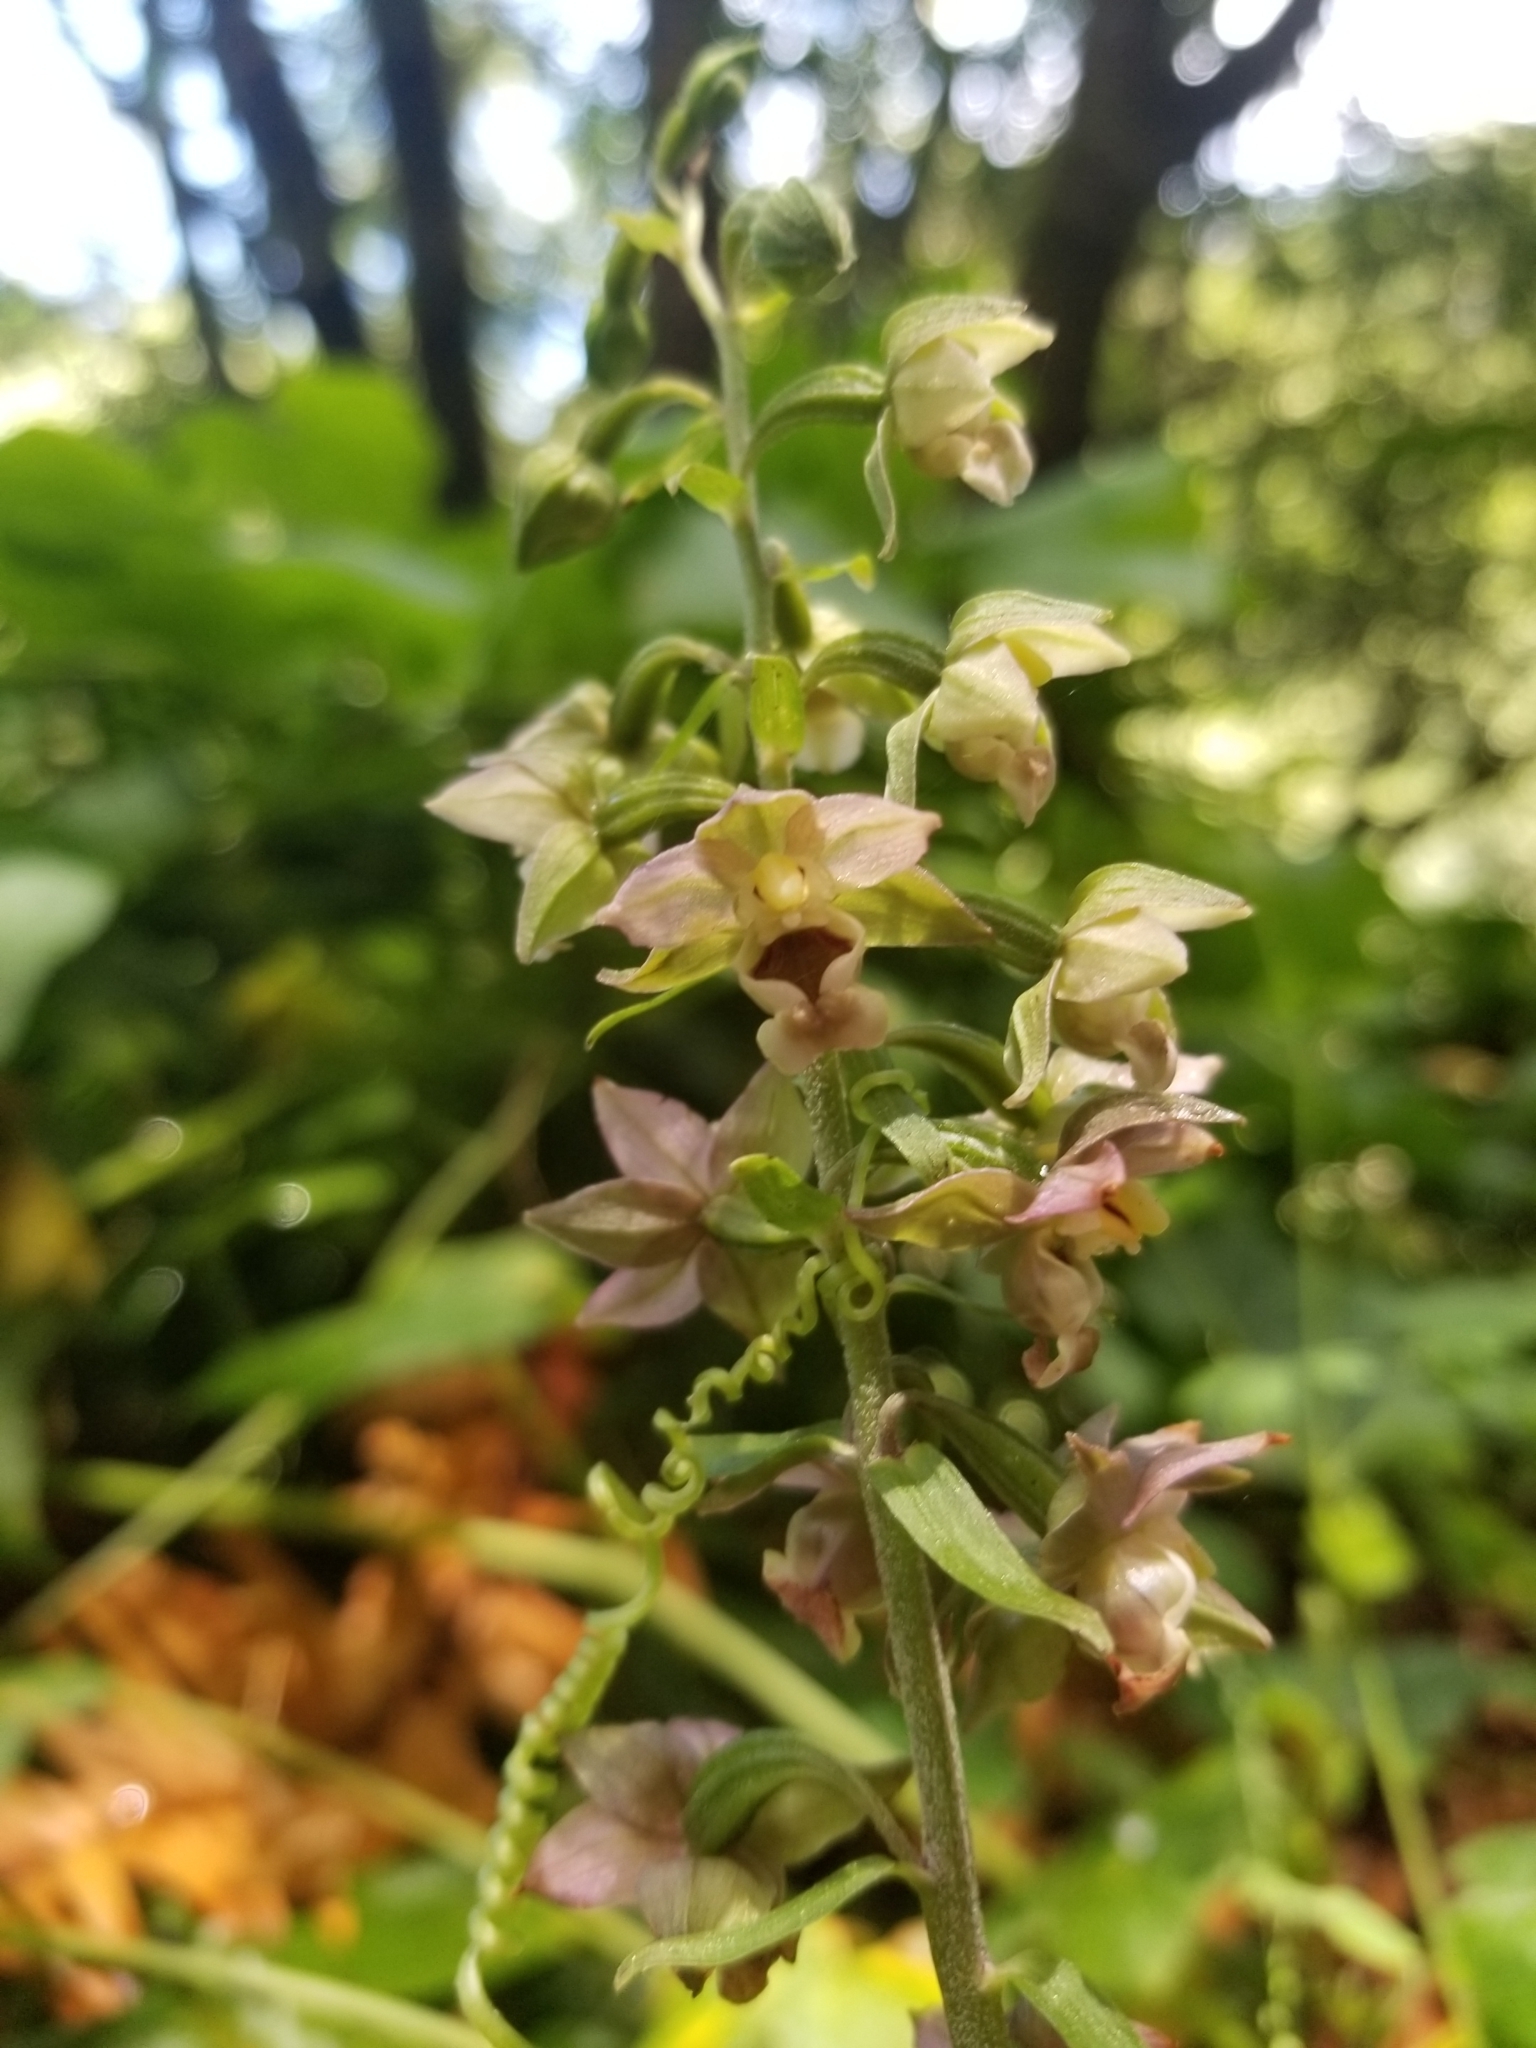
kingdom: Plantae
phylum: Tracheophyta
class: Liliopsida
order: Asparagales
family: Orchidaceae
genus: Epipactis
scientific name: Epipactis helleborine
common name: Broad-leaved helleborine
